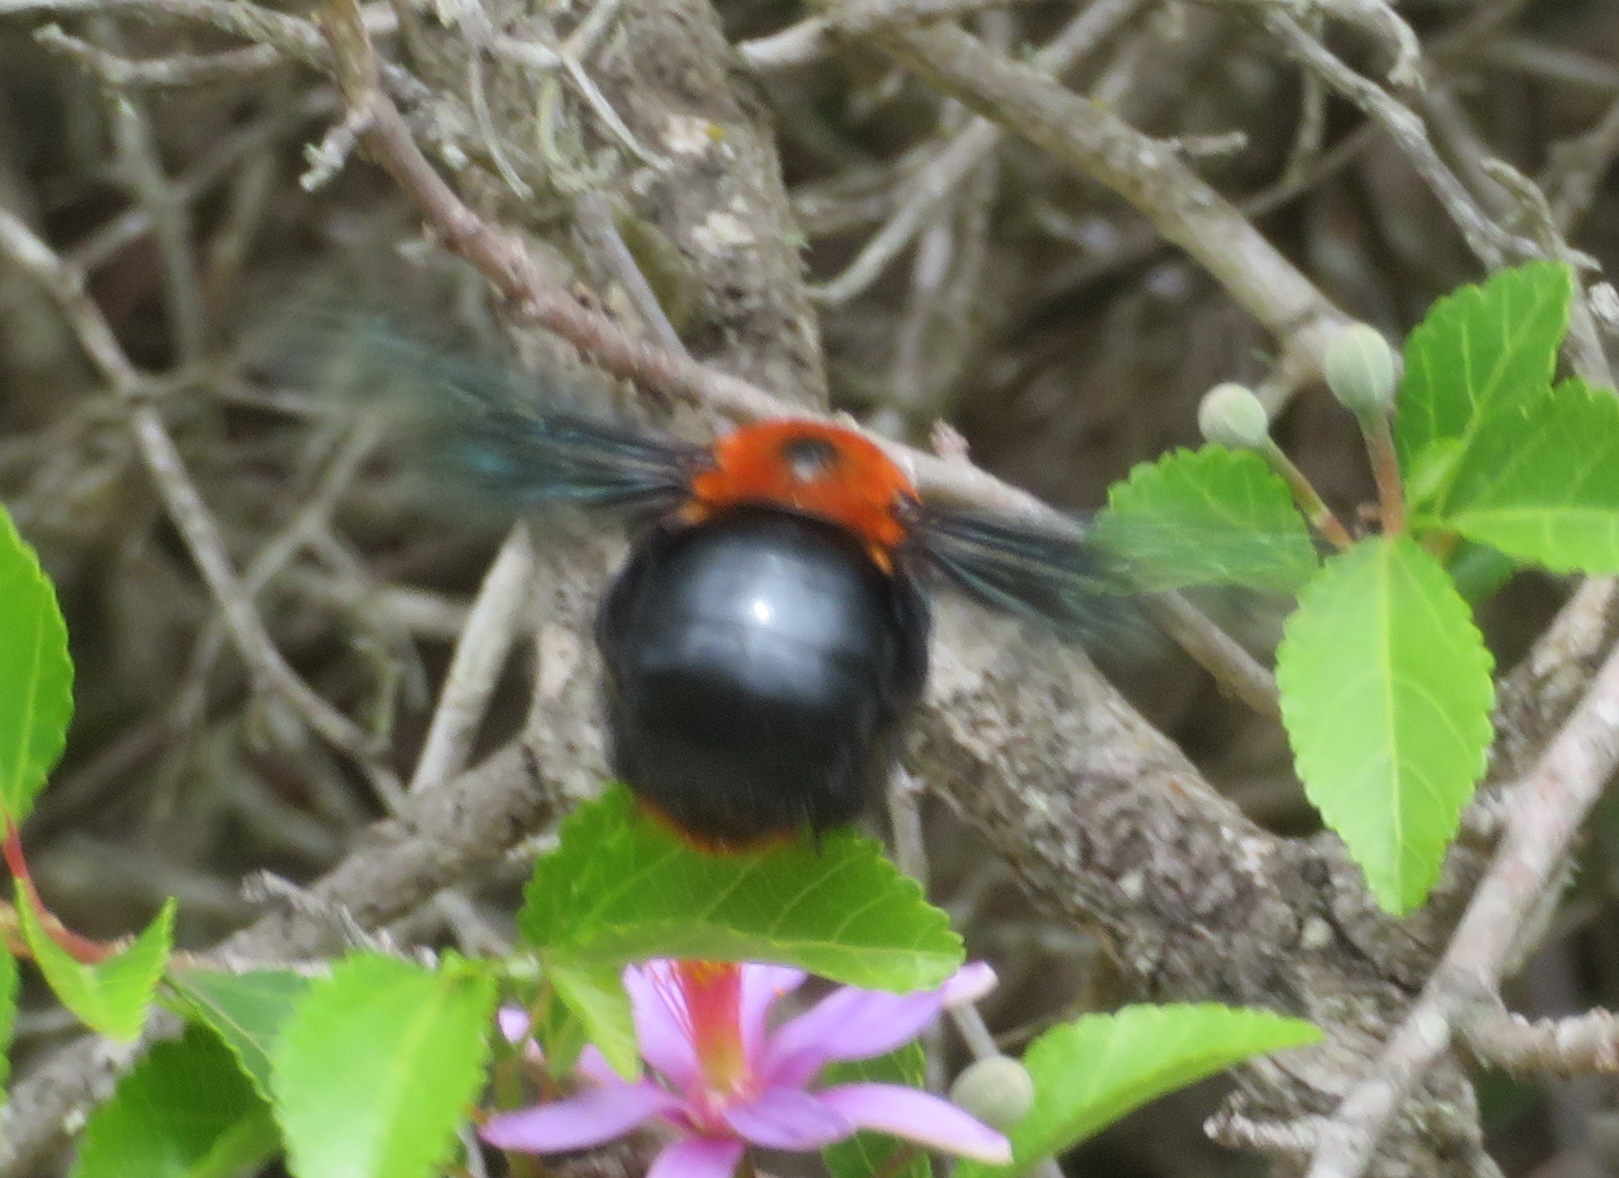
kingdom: Animalia
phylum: Arthropoda
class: Insecta
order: Hymenoptera
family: Apidae
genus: Xylocopa
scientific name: Xylocopa flavorufa
